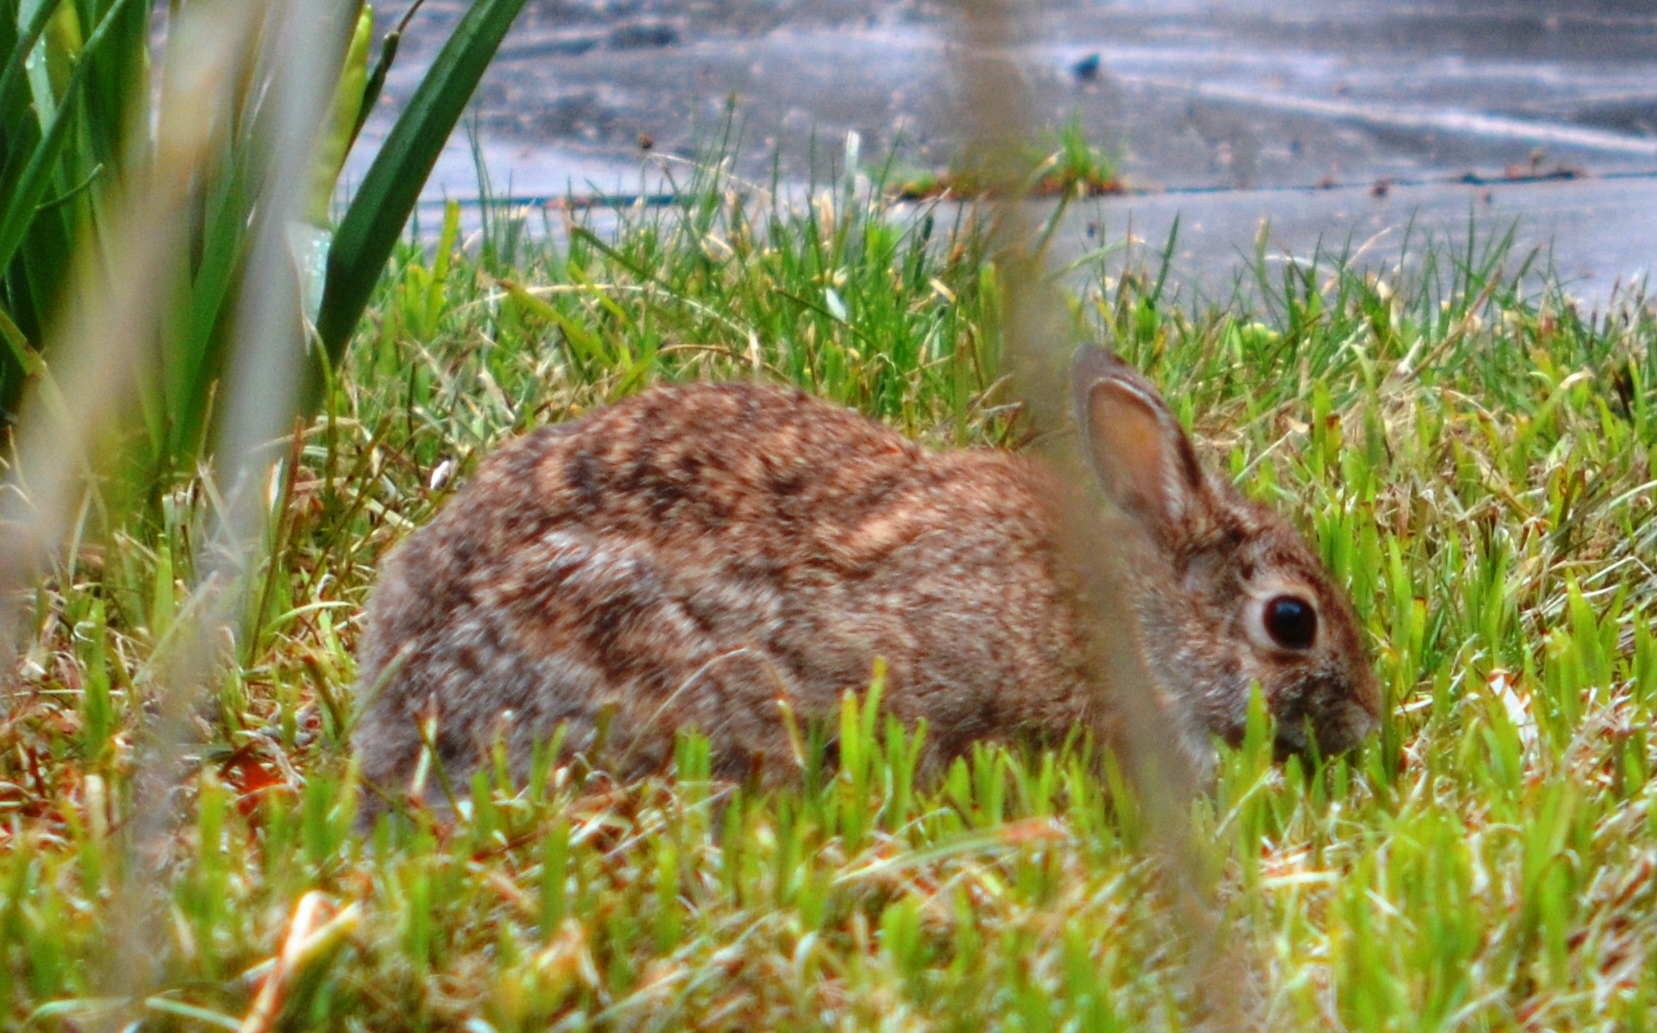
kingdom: Animalia
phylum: Chordata
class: Mammalia
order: Lagomorpha
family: Leporidae
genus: Sylvilagus
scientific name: Sylvilagus floridanus
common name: Eastern cottontail
